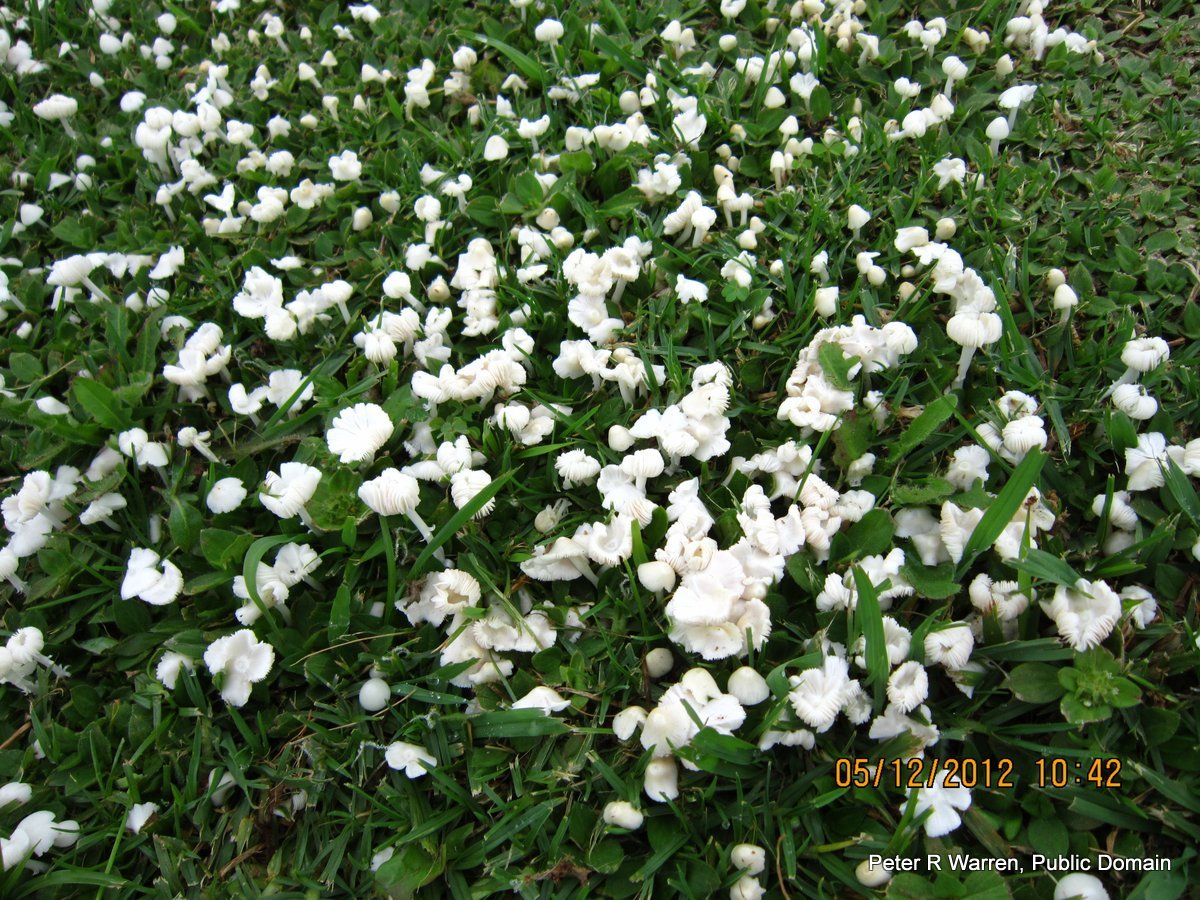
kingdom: Fungi
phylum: Basidiomycota
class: Agaricomycetes
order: Agaricales
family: Lyophyllaceae
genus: Termitomyces
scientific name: Termitomyces microcarpus
